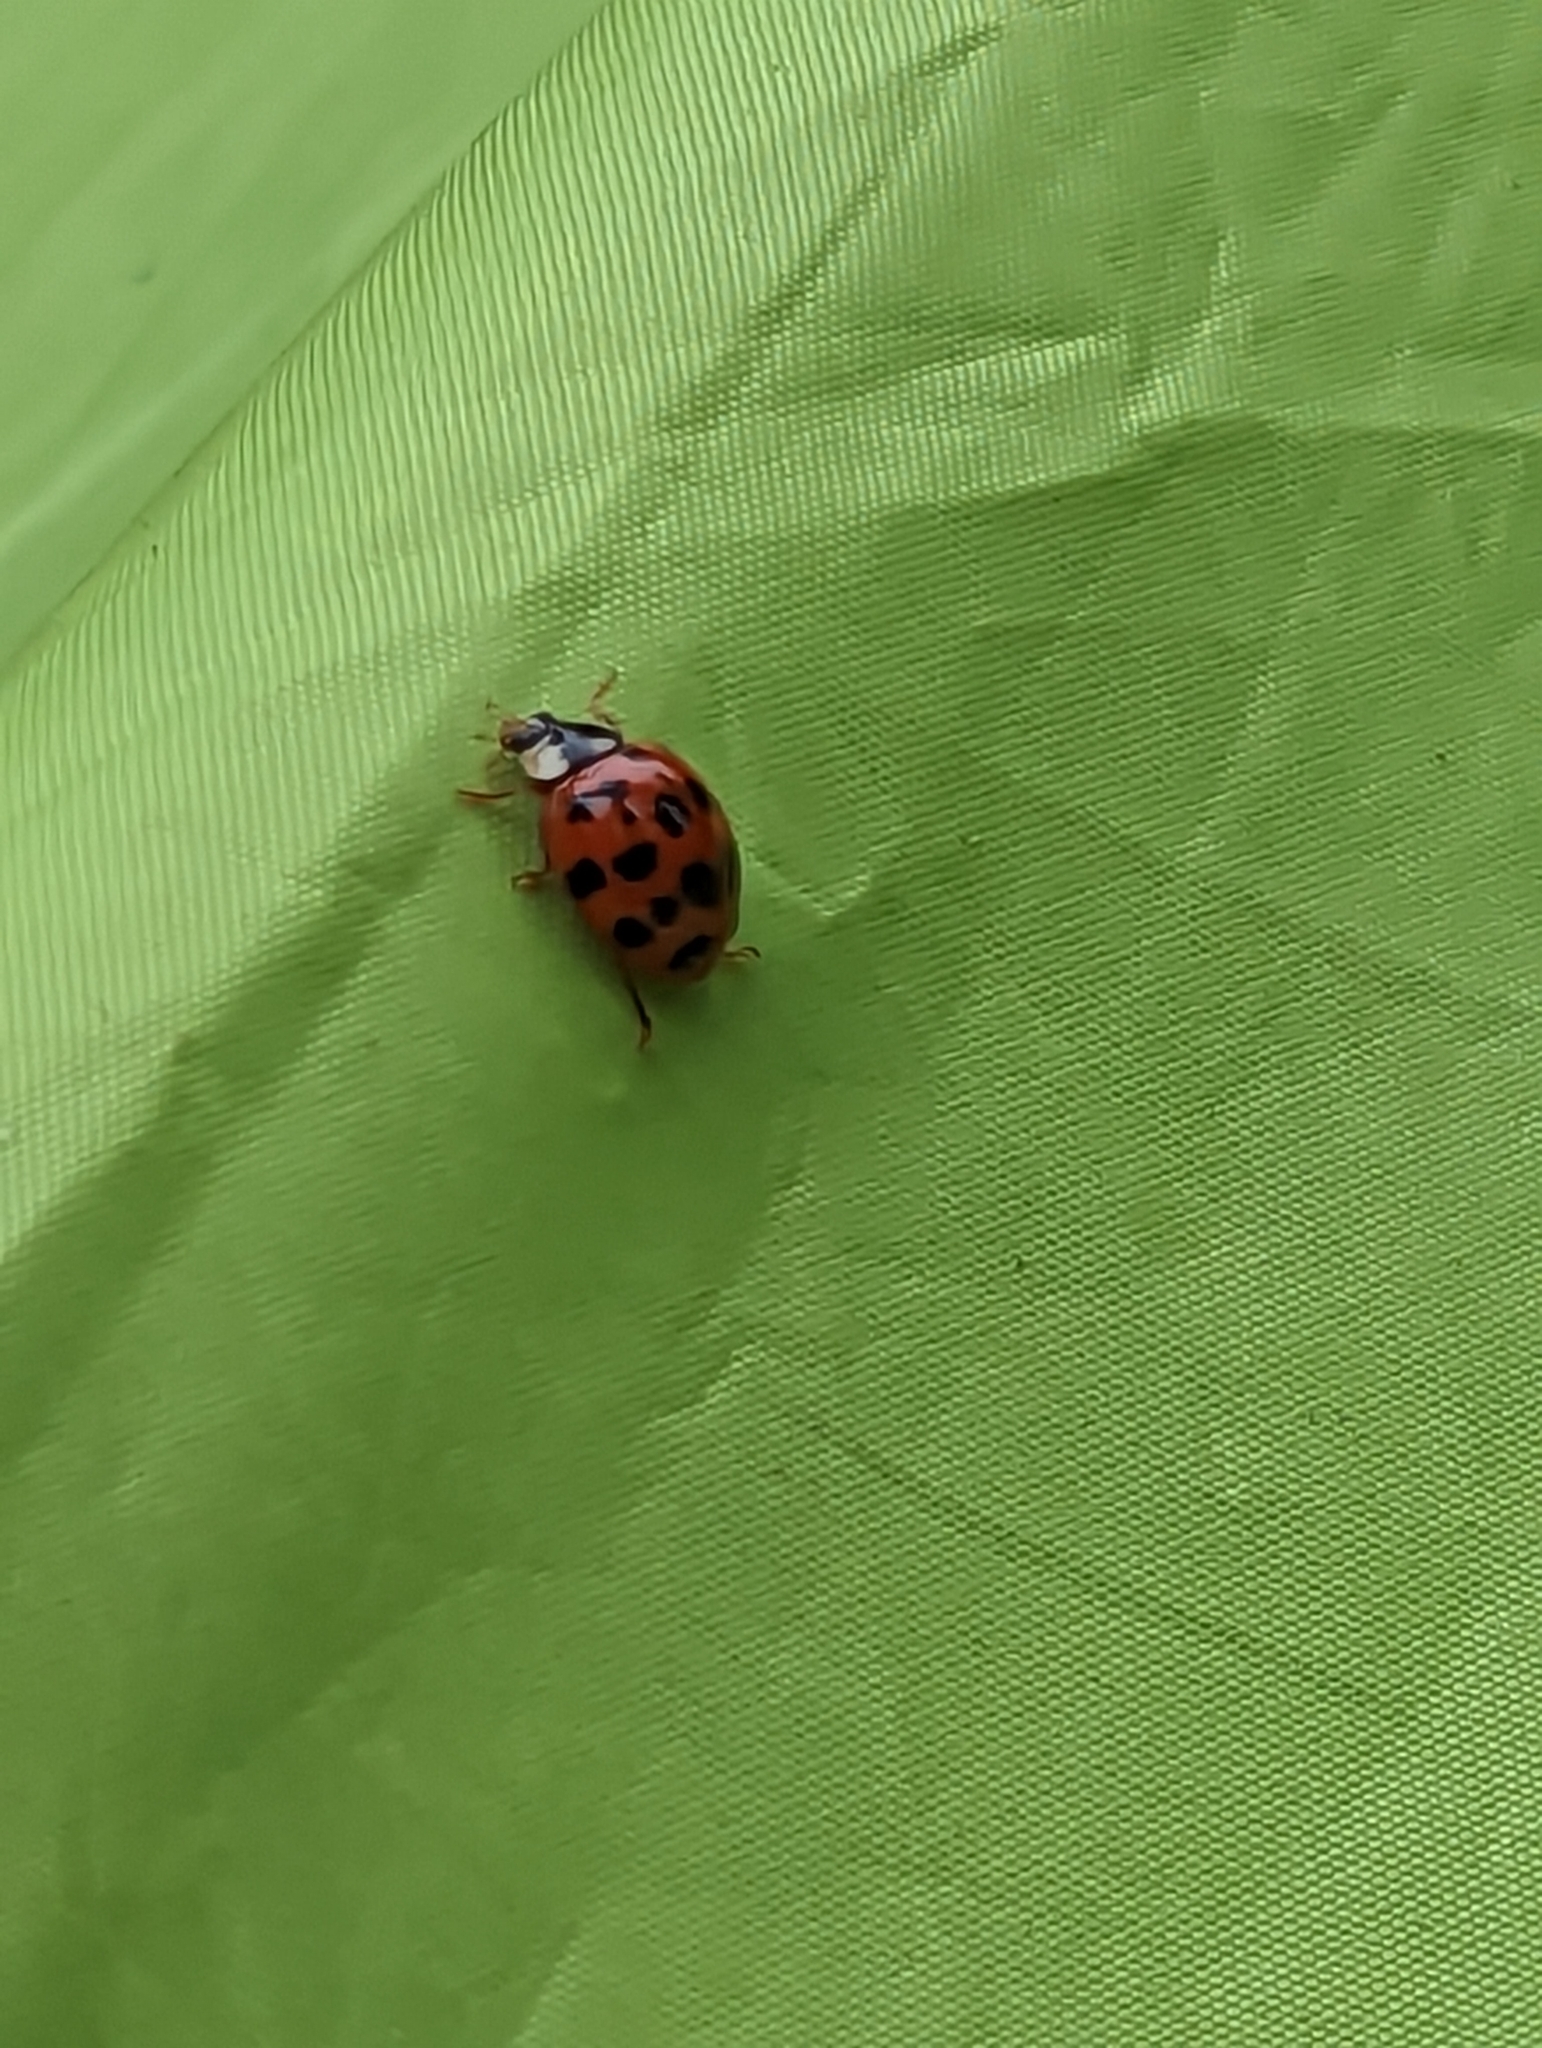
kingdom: Animalia
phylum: Arthropoda
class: Insecta
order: Coleoptera
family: Coccinellidae
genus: Harmonia
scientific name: Harmonia axyridis
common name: Harlequin ladybird
